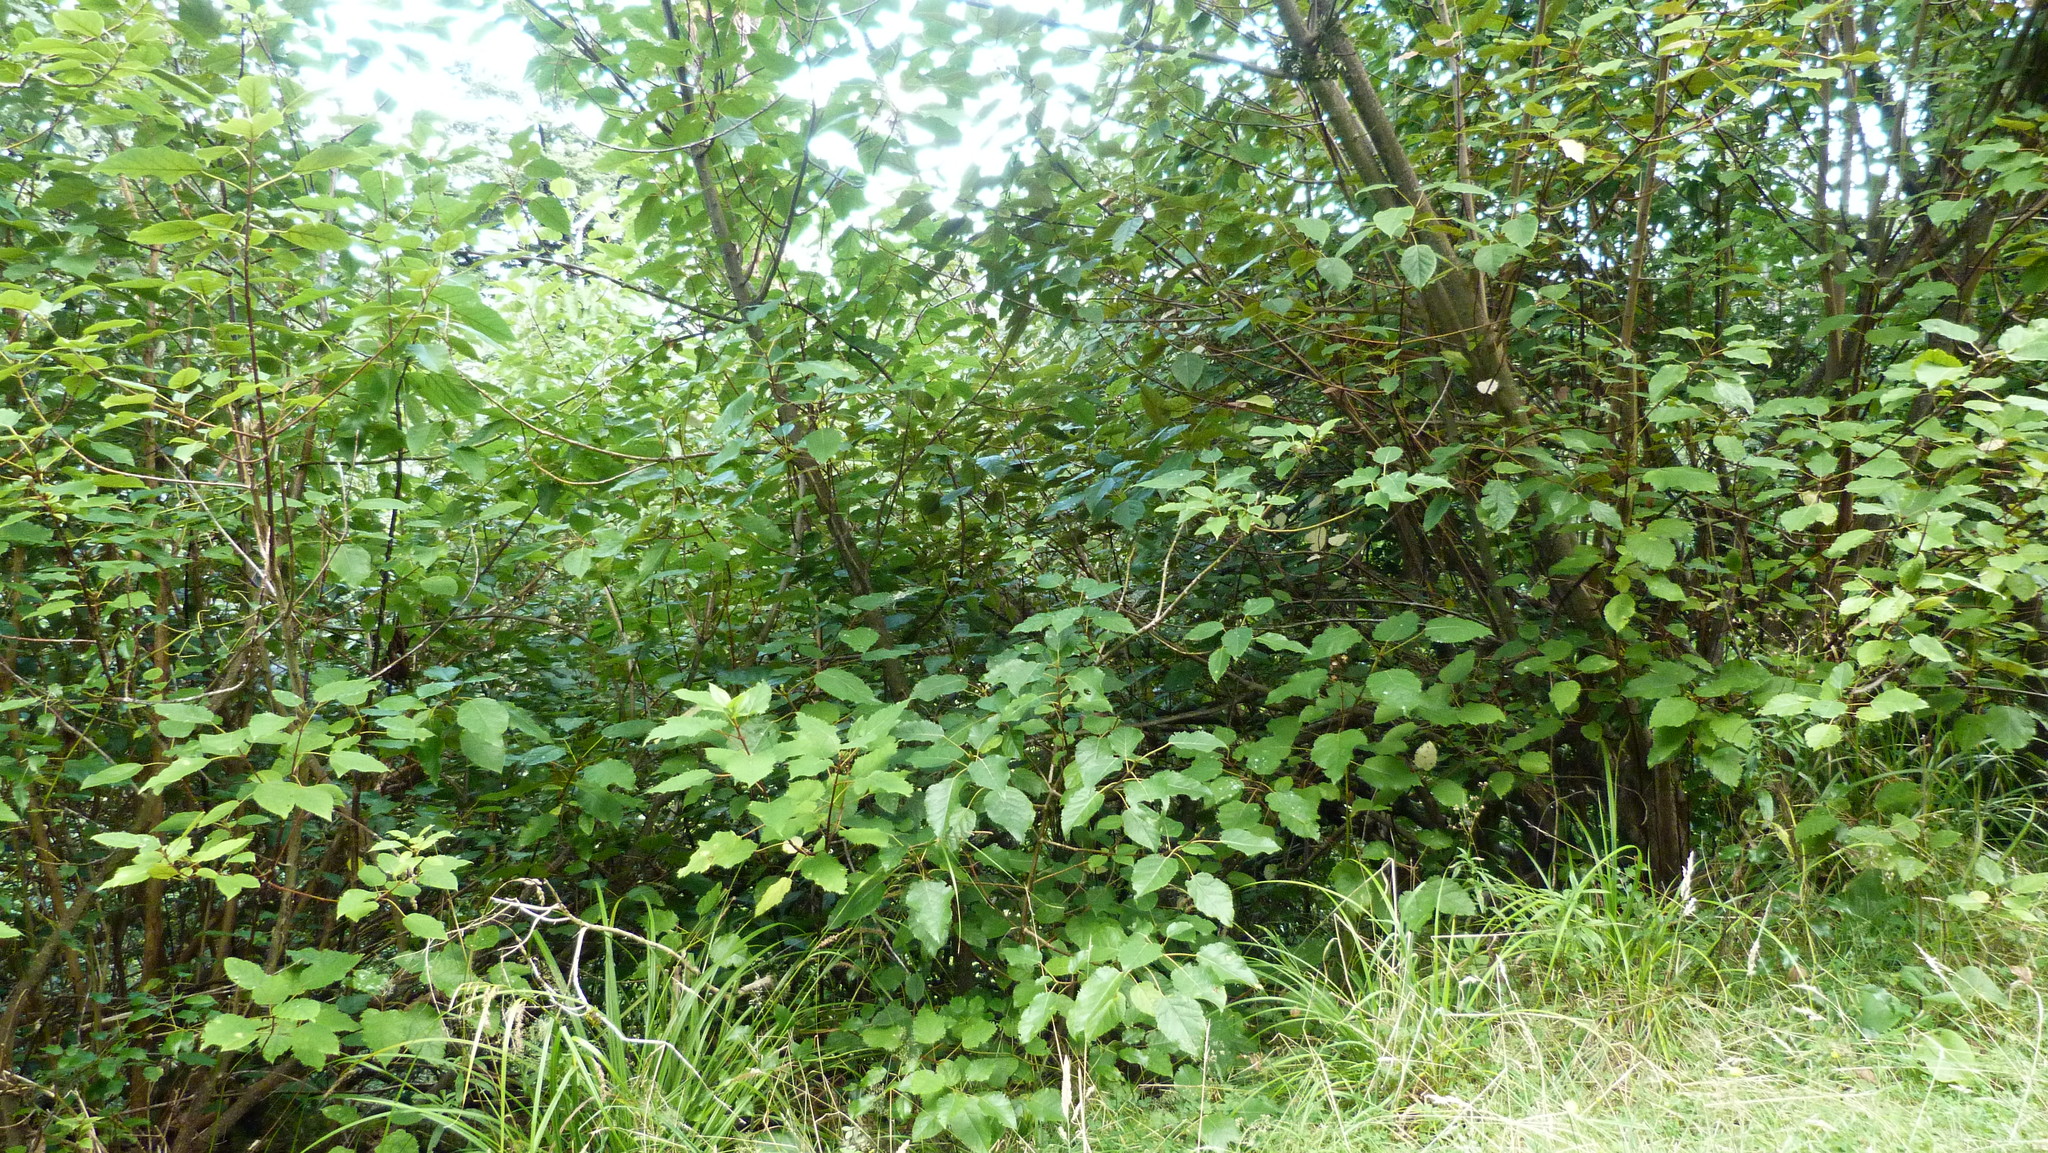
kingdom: Plantae
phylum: Tracheophyta
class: Magnoliopsida
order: Oxalidales
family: Elaeocarpaceae
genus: Aristotelia
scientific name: Aristotelia serrata
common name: New zealand wineberry
